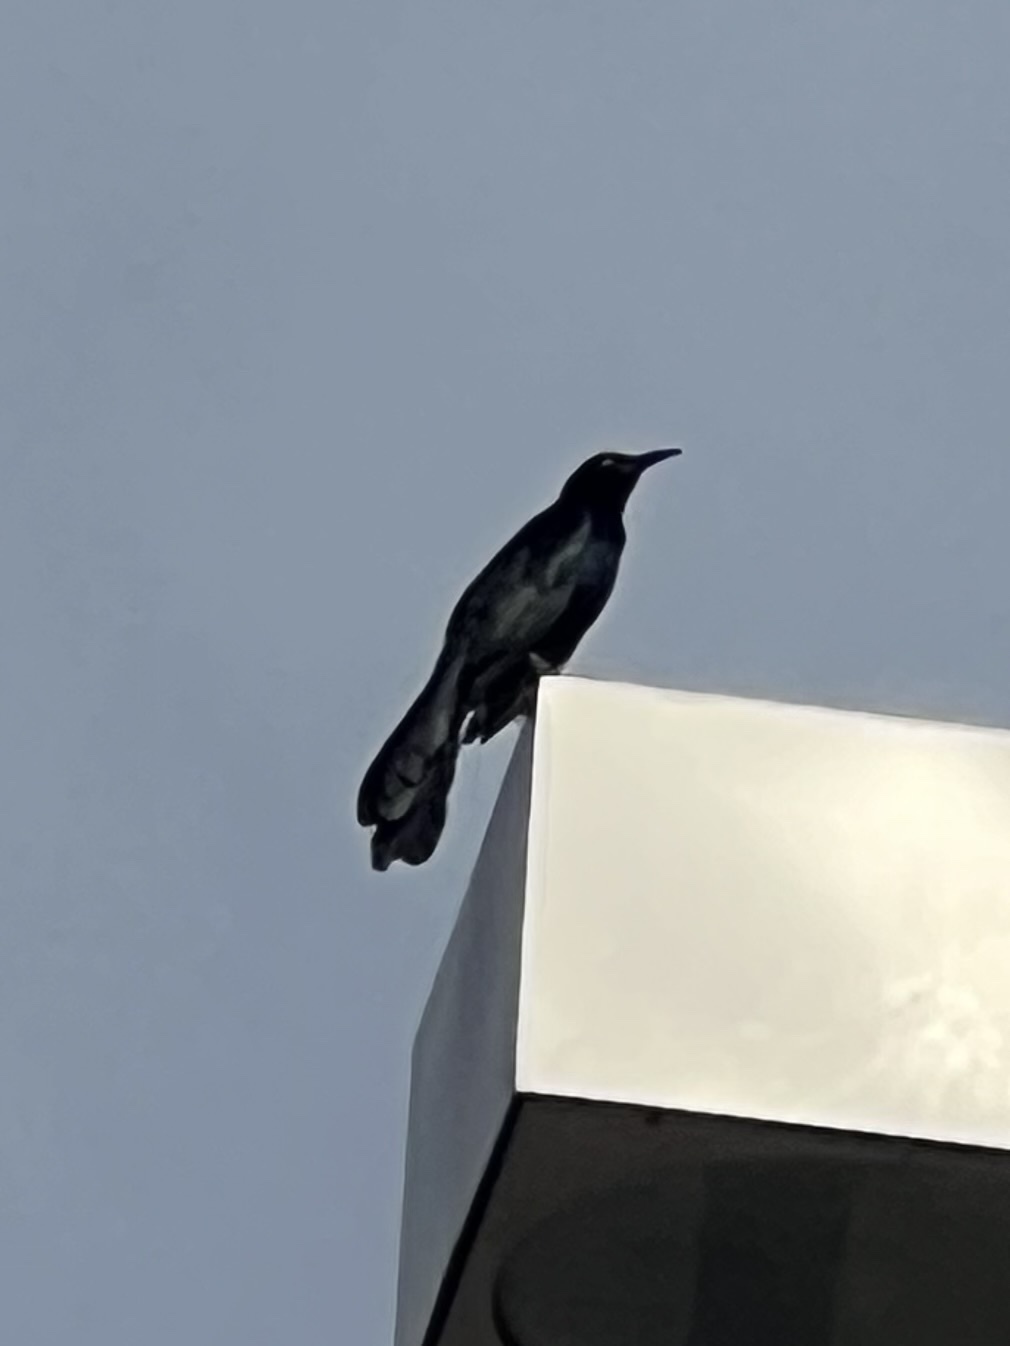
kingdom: Animalia
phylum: Chordata
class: Aves
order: Passeriformes
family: Icteridae
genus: Quiscalus
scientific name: Quiscalus mexicanus
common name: Great-tailed grackle
